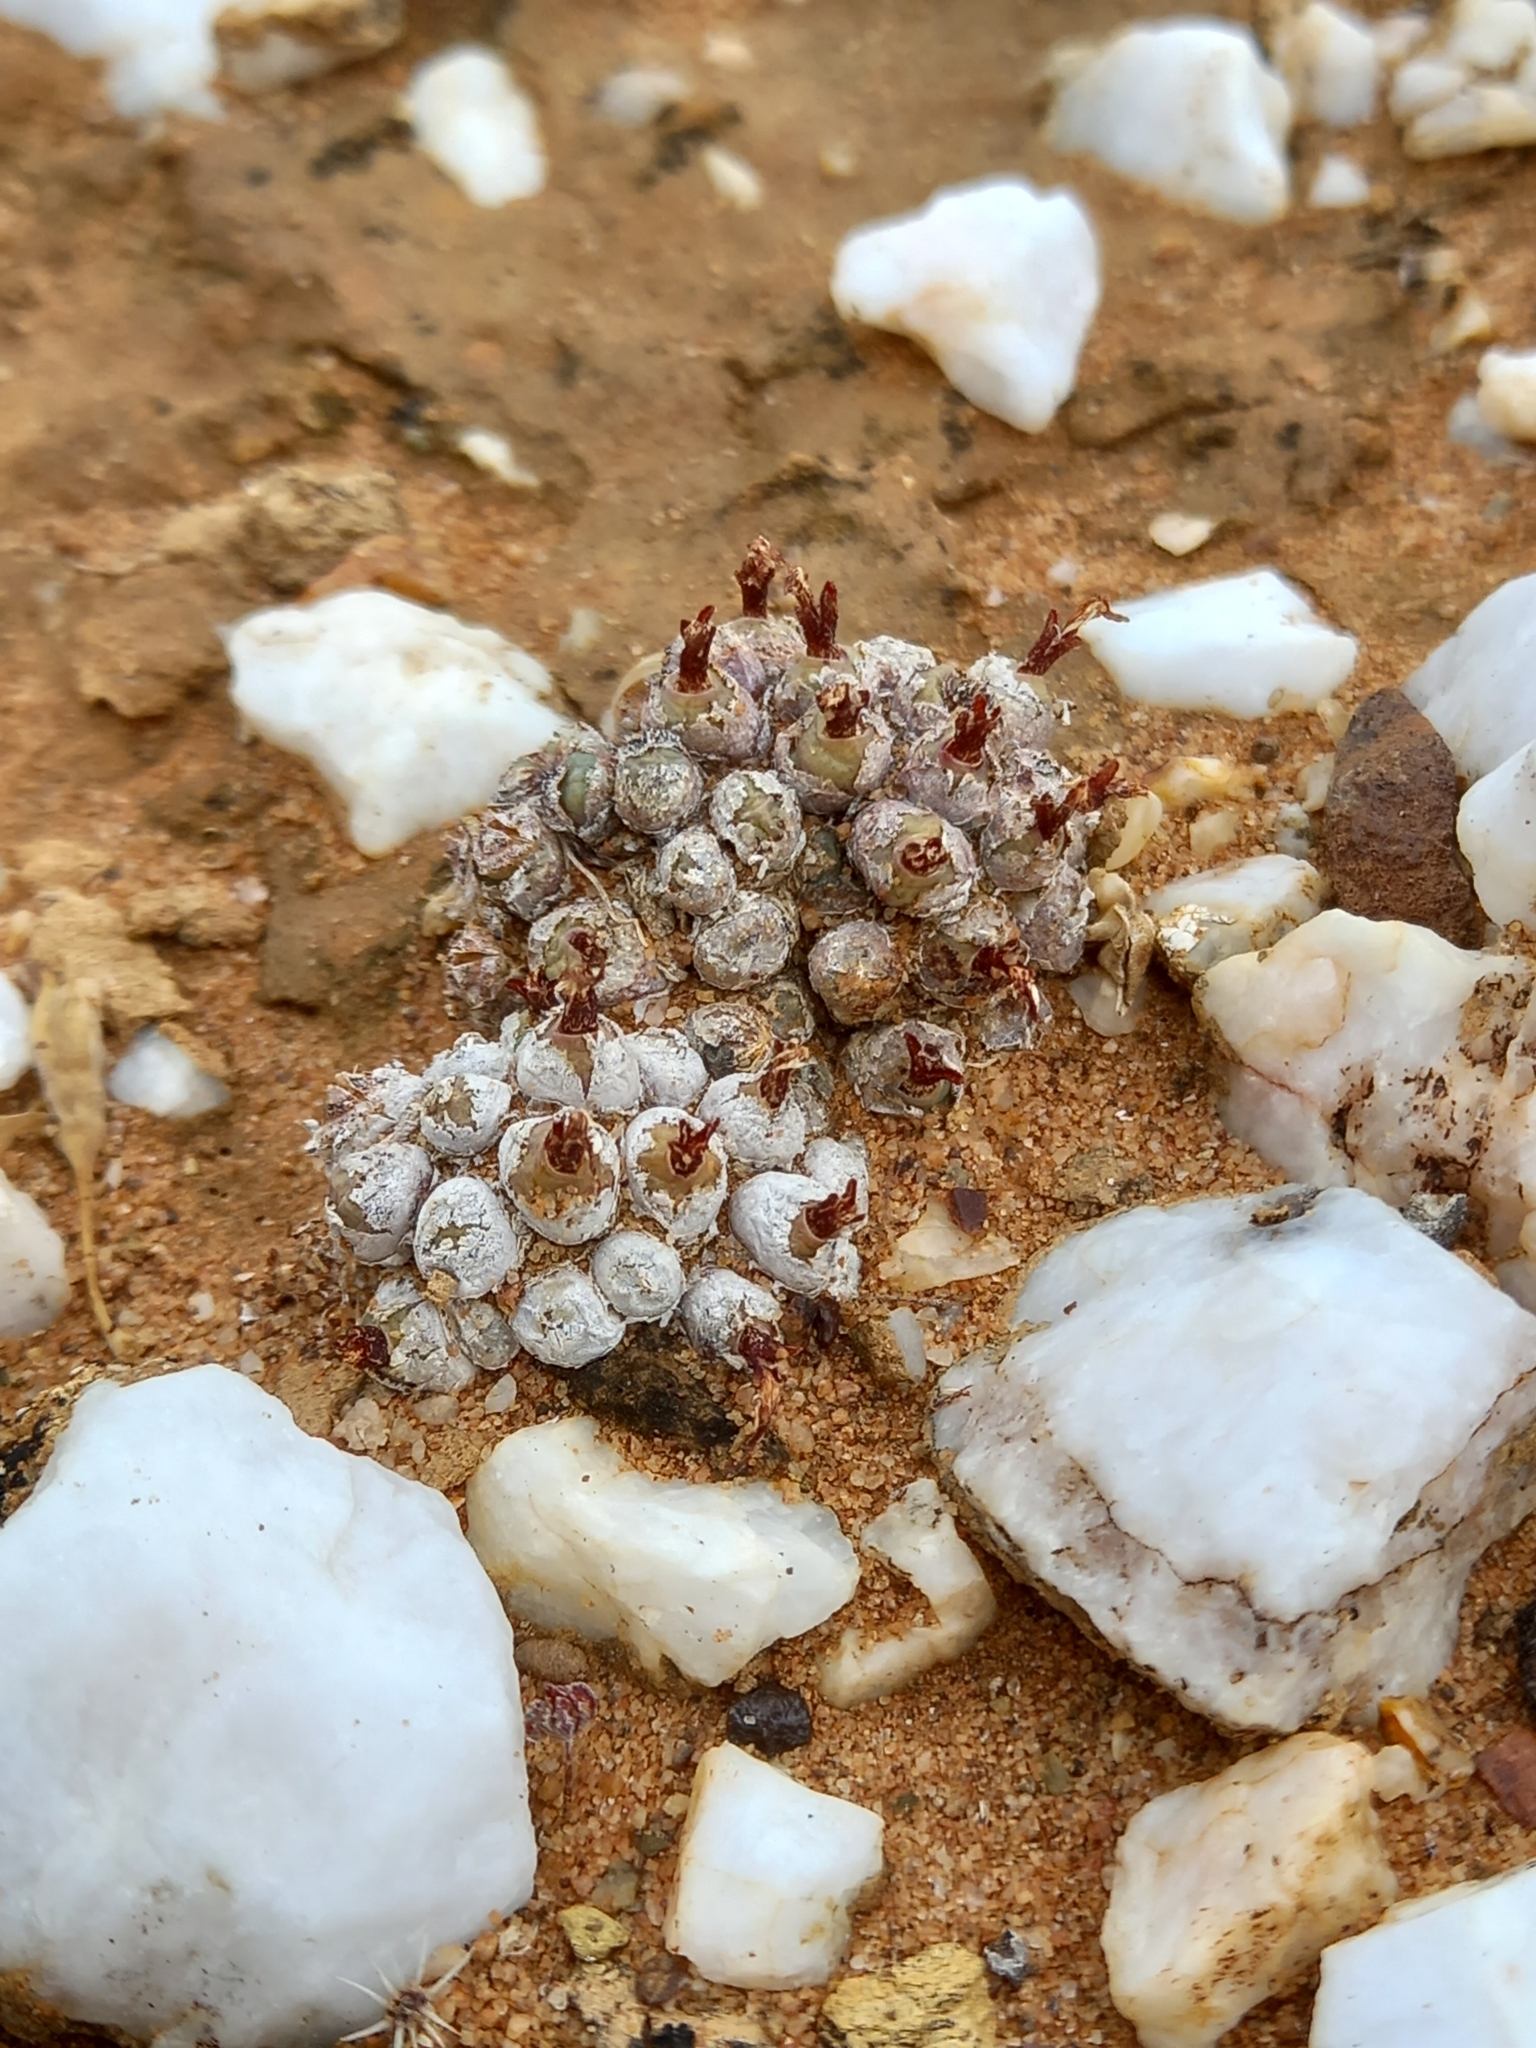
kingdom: Plantae
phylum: Tracheophyta
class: Magnoliopsida
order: Caryophyllales
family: Aizoaceae
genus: Conophytum
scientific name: Conophytum piluliforme
